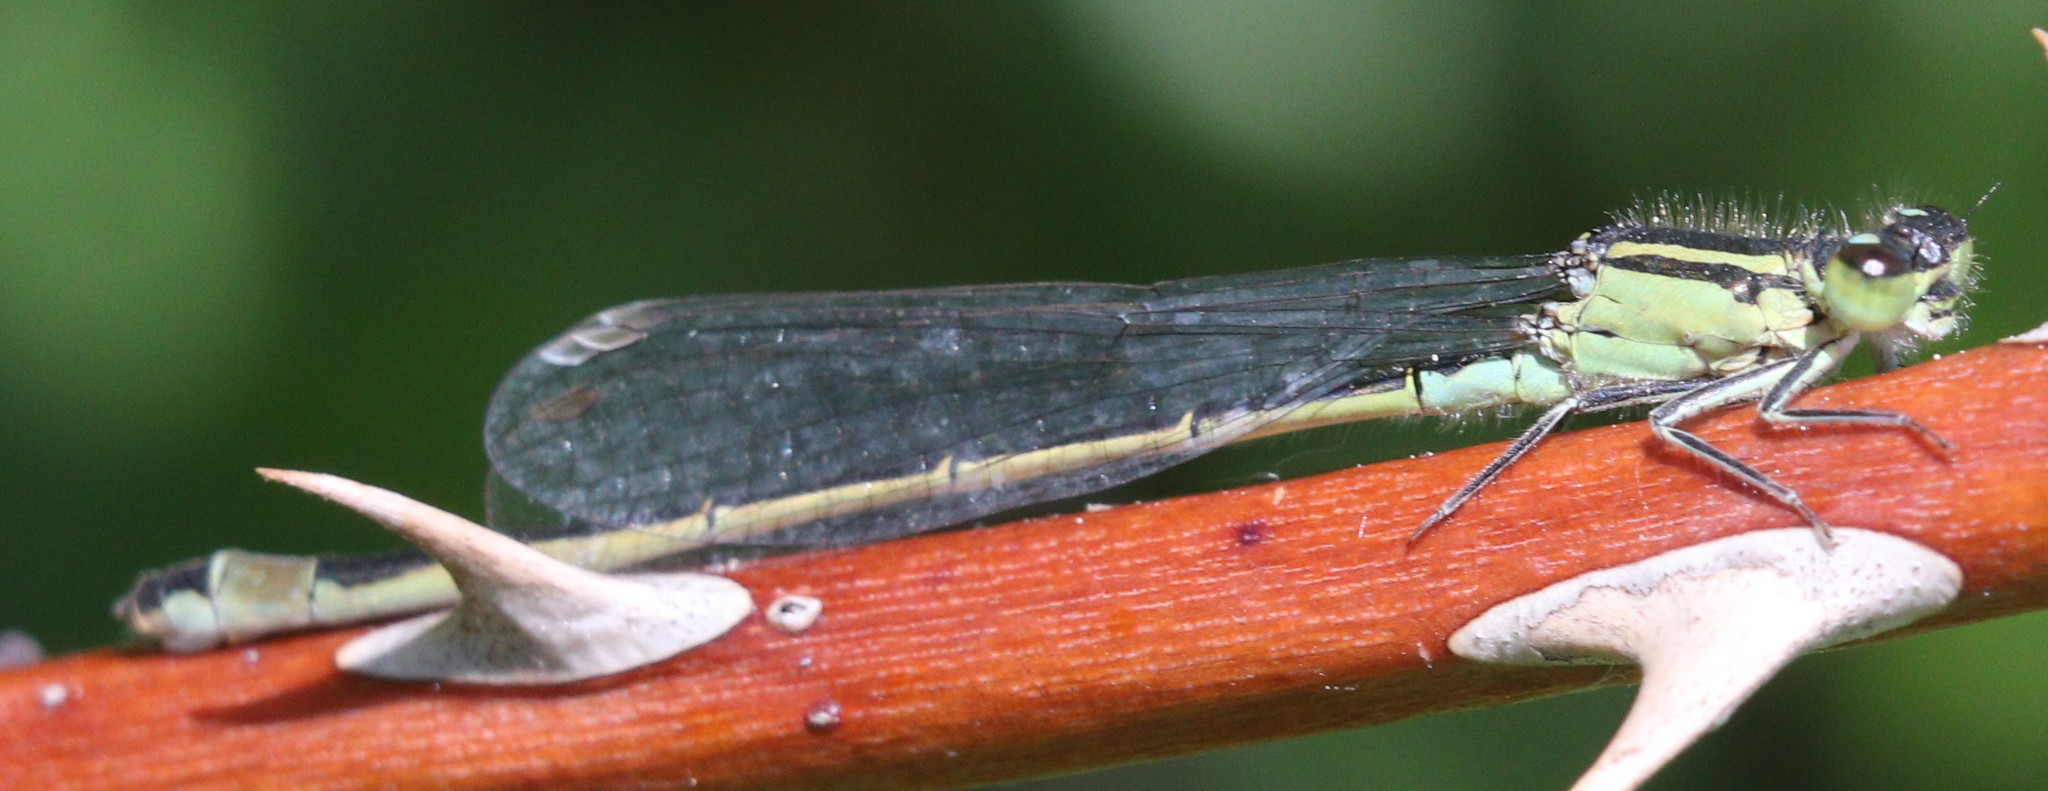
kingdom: Animalia
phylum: Arthropoda
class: Insecta
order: Odonata
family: Coenagrionidae
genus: Ischnura
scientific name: Ischnura elegans
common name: Blue-tailed damselfly
